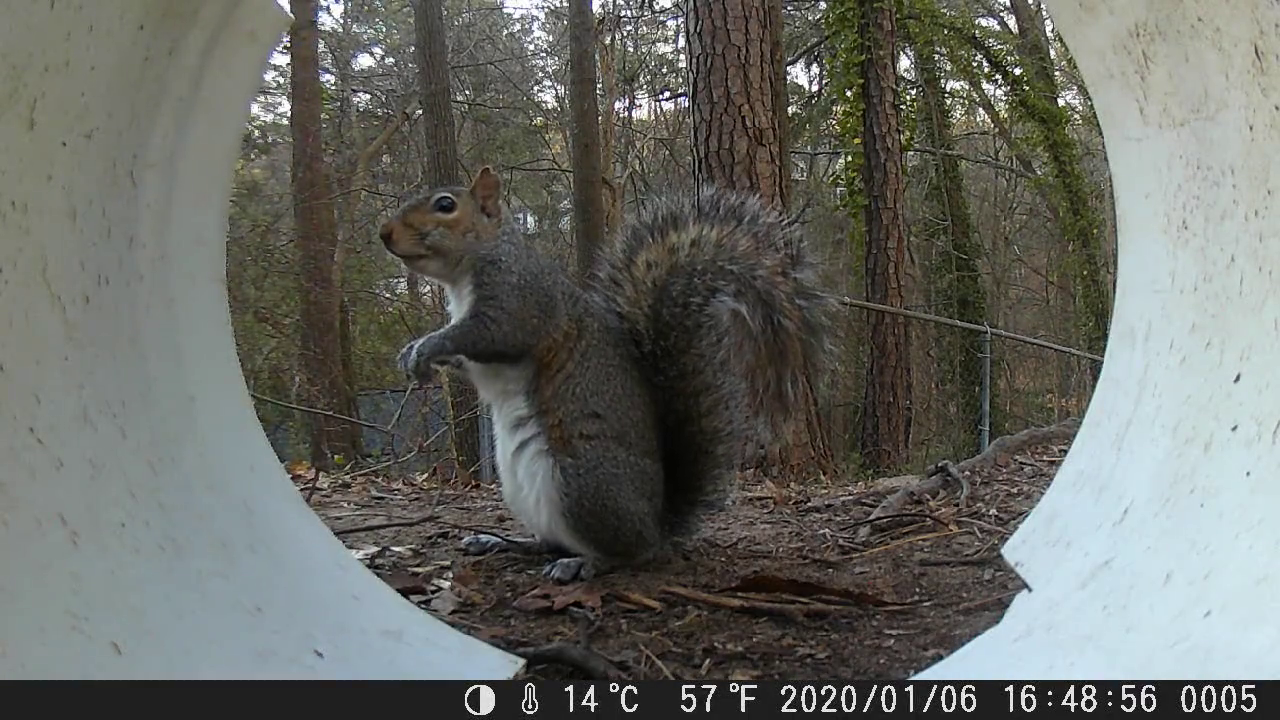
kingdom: Animalia
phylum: Chordata
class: Mammalia
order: Rodentia
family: Sciuridae
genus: Sciurus
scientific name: Sciurus carolinensis
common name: Eastern gray squirrel
